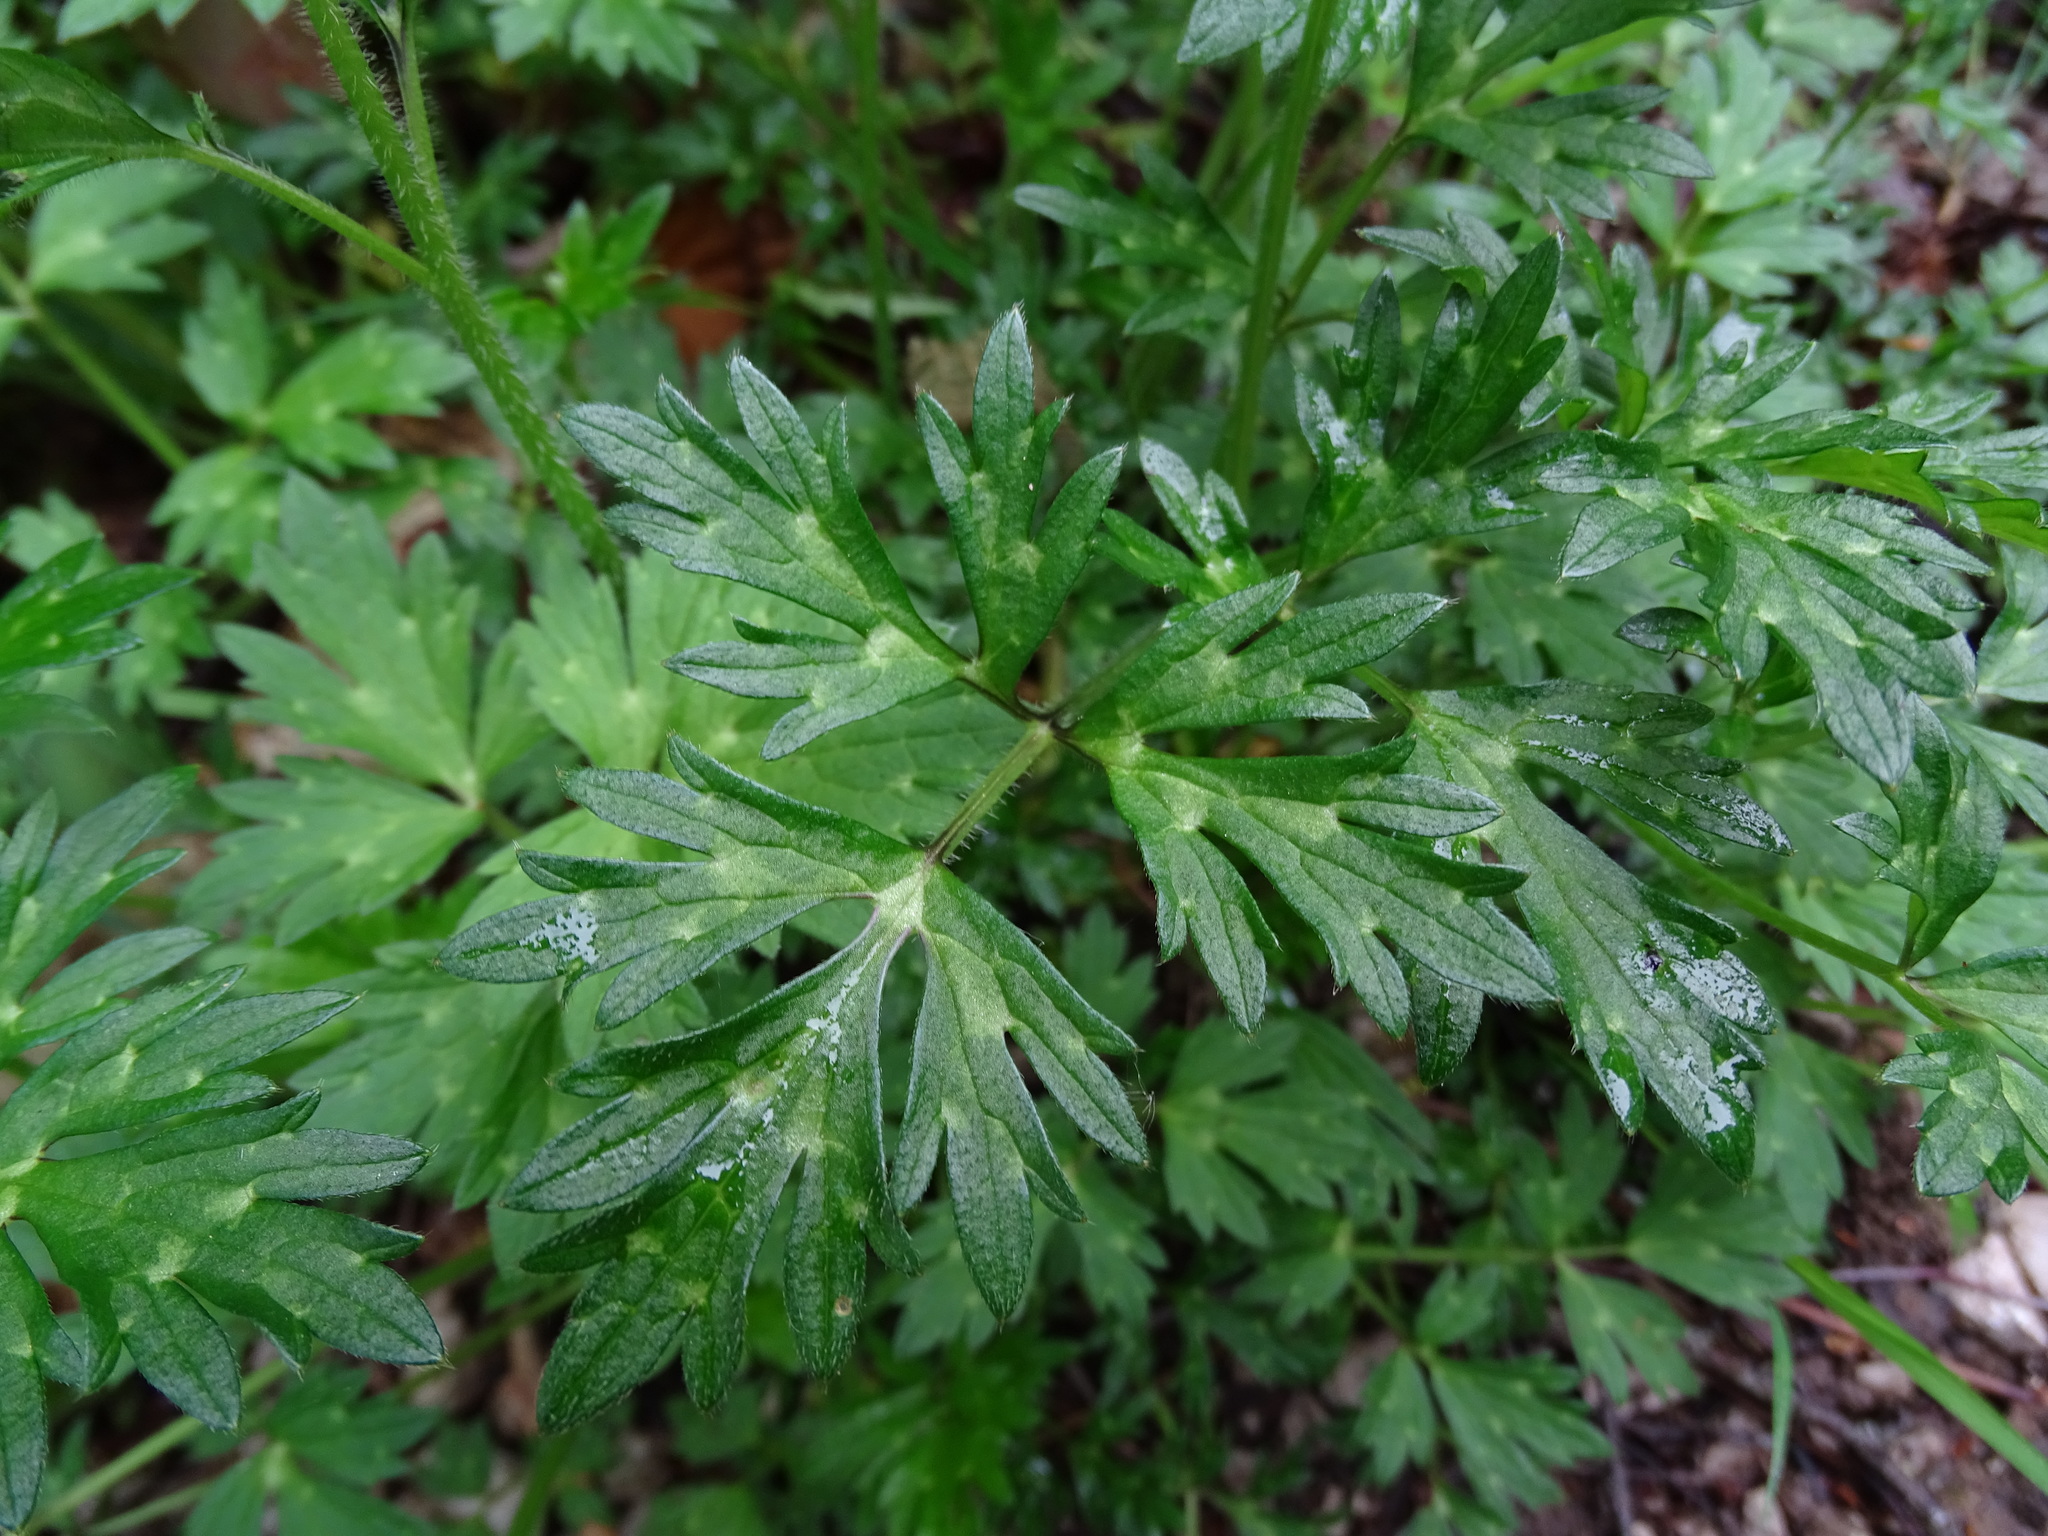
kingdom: Plantae
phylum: Tracheophyta
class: Magnoliopsida
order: Ranunculales
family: Ranunculaceae
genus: Ranunculus
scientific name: Ranunculus repens
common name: Creeping buttercup
